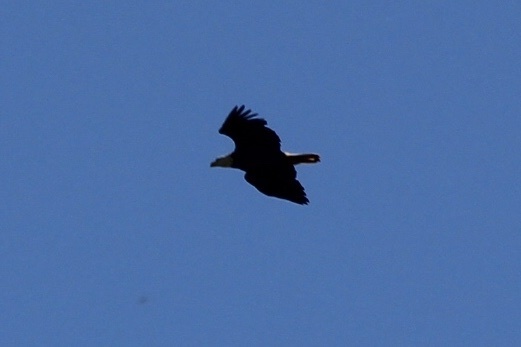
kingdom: Animalia
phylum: Chordata
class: Aves
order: Accipitriformes
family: Accipitridae
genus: Haliaeetus
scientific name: Haliaeetus leucocephalus
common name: Bald eagle
